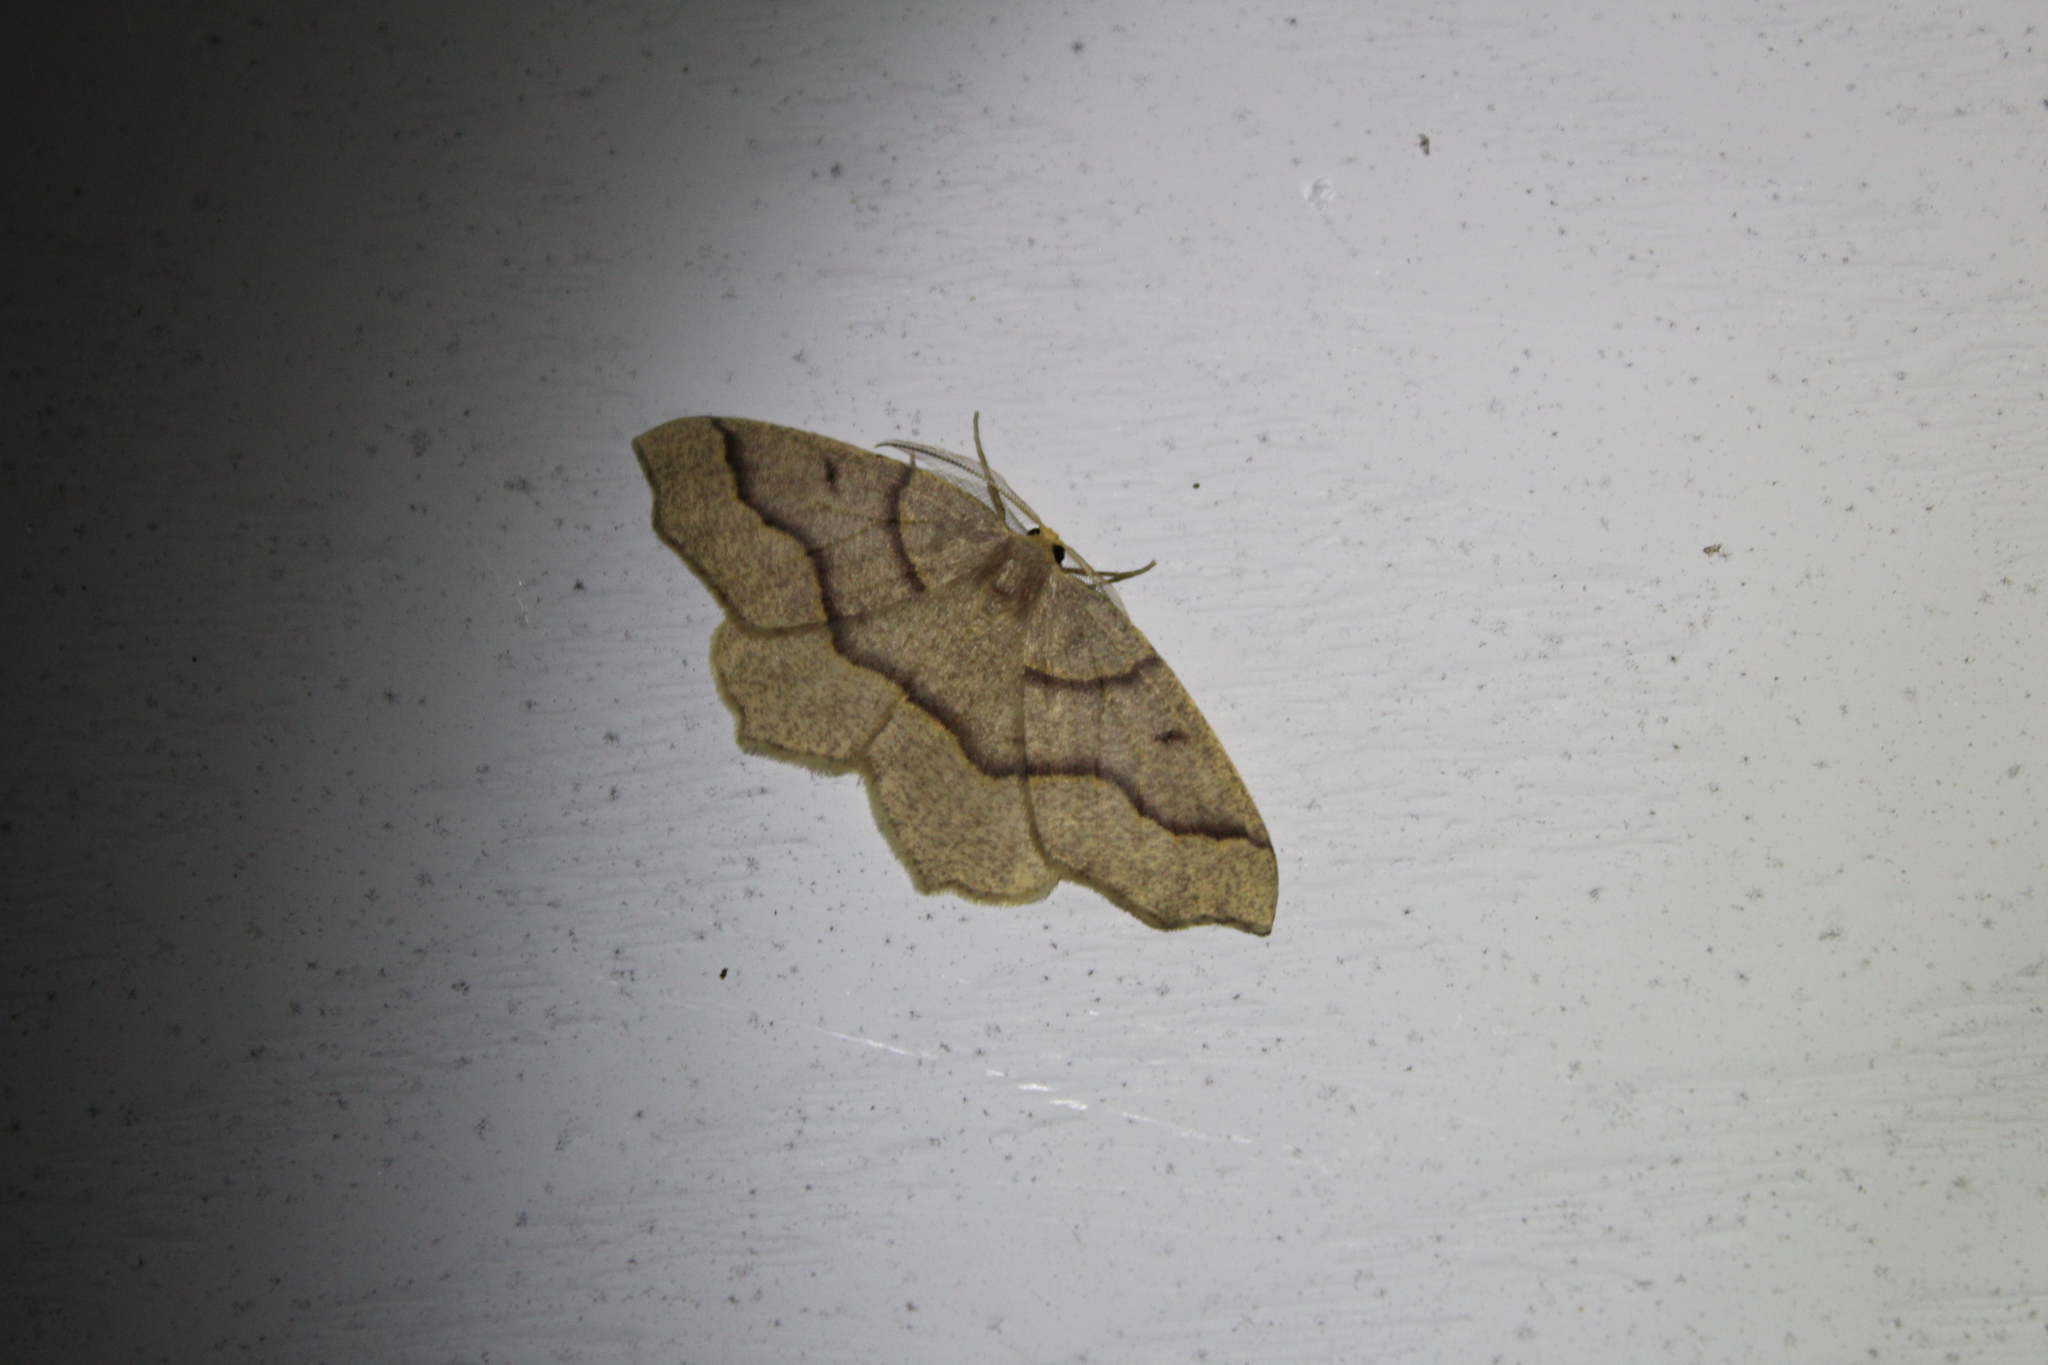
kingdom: Animalia
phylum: Arthropoda
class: Insecta
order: Lepidoptera
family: Geometridae
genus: Lambdina
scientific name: Lambdina fiscellaria
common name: Hemlock looper
